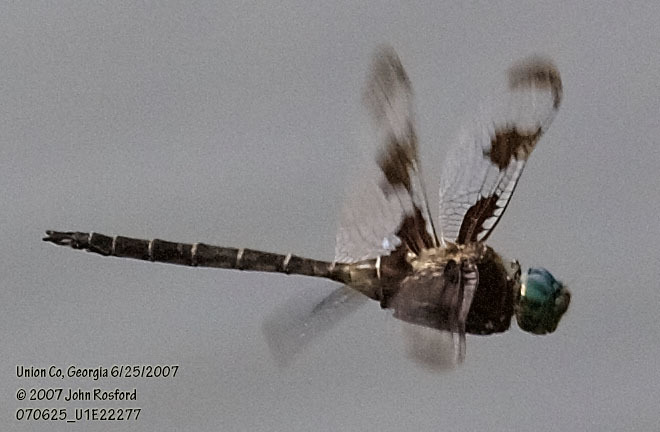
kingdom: Animalia
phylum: Arthropoda
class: Insecta
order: Odonata
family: Corduliidae
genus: Epitheca
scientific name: Epitheca princeps
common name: Prince baskettail
